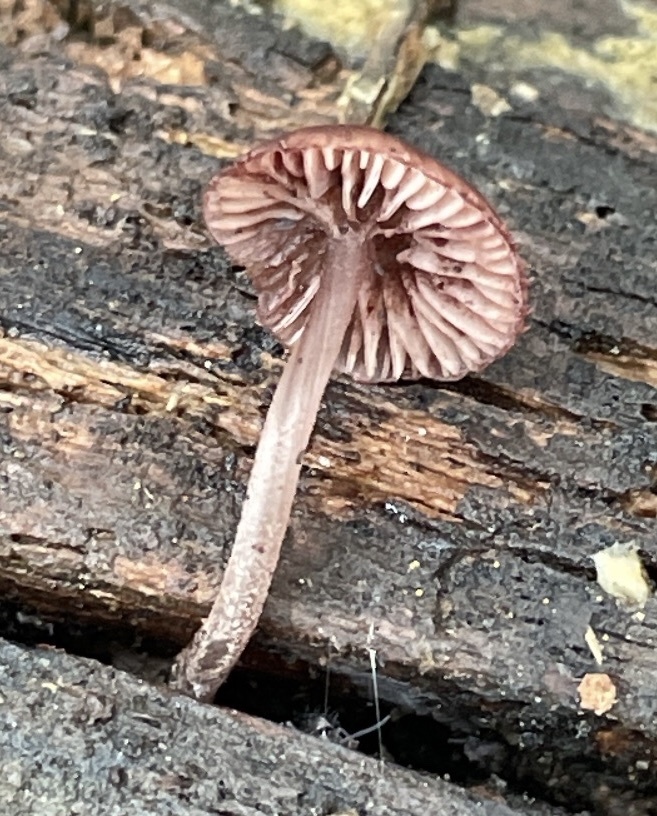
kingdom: Fungi
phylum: Basidiomycota
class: Agaricomycetes
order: Agaricales
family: Mycenaceae
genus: Mycena
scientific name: Mycena haematopus
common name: Burgundydrop bonnet
